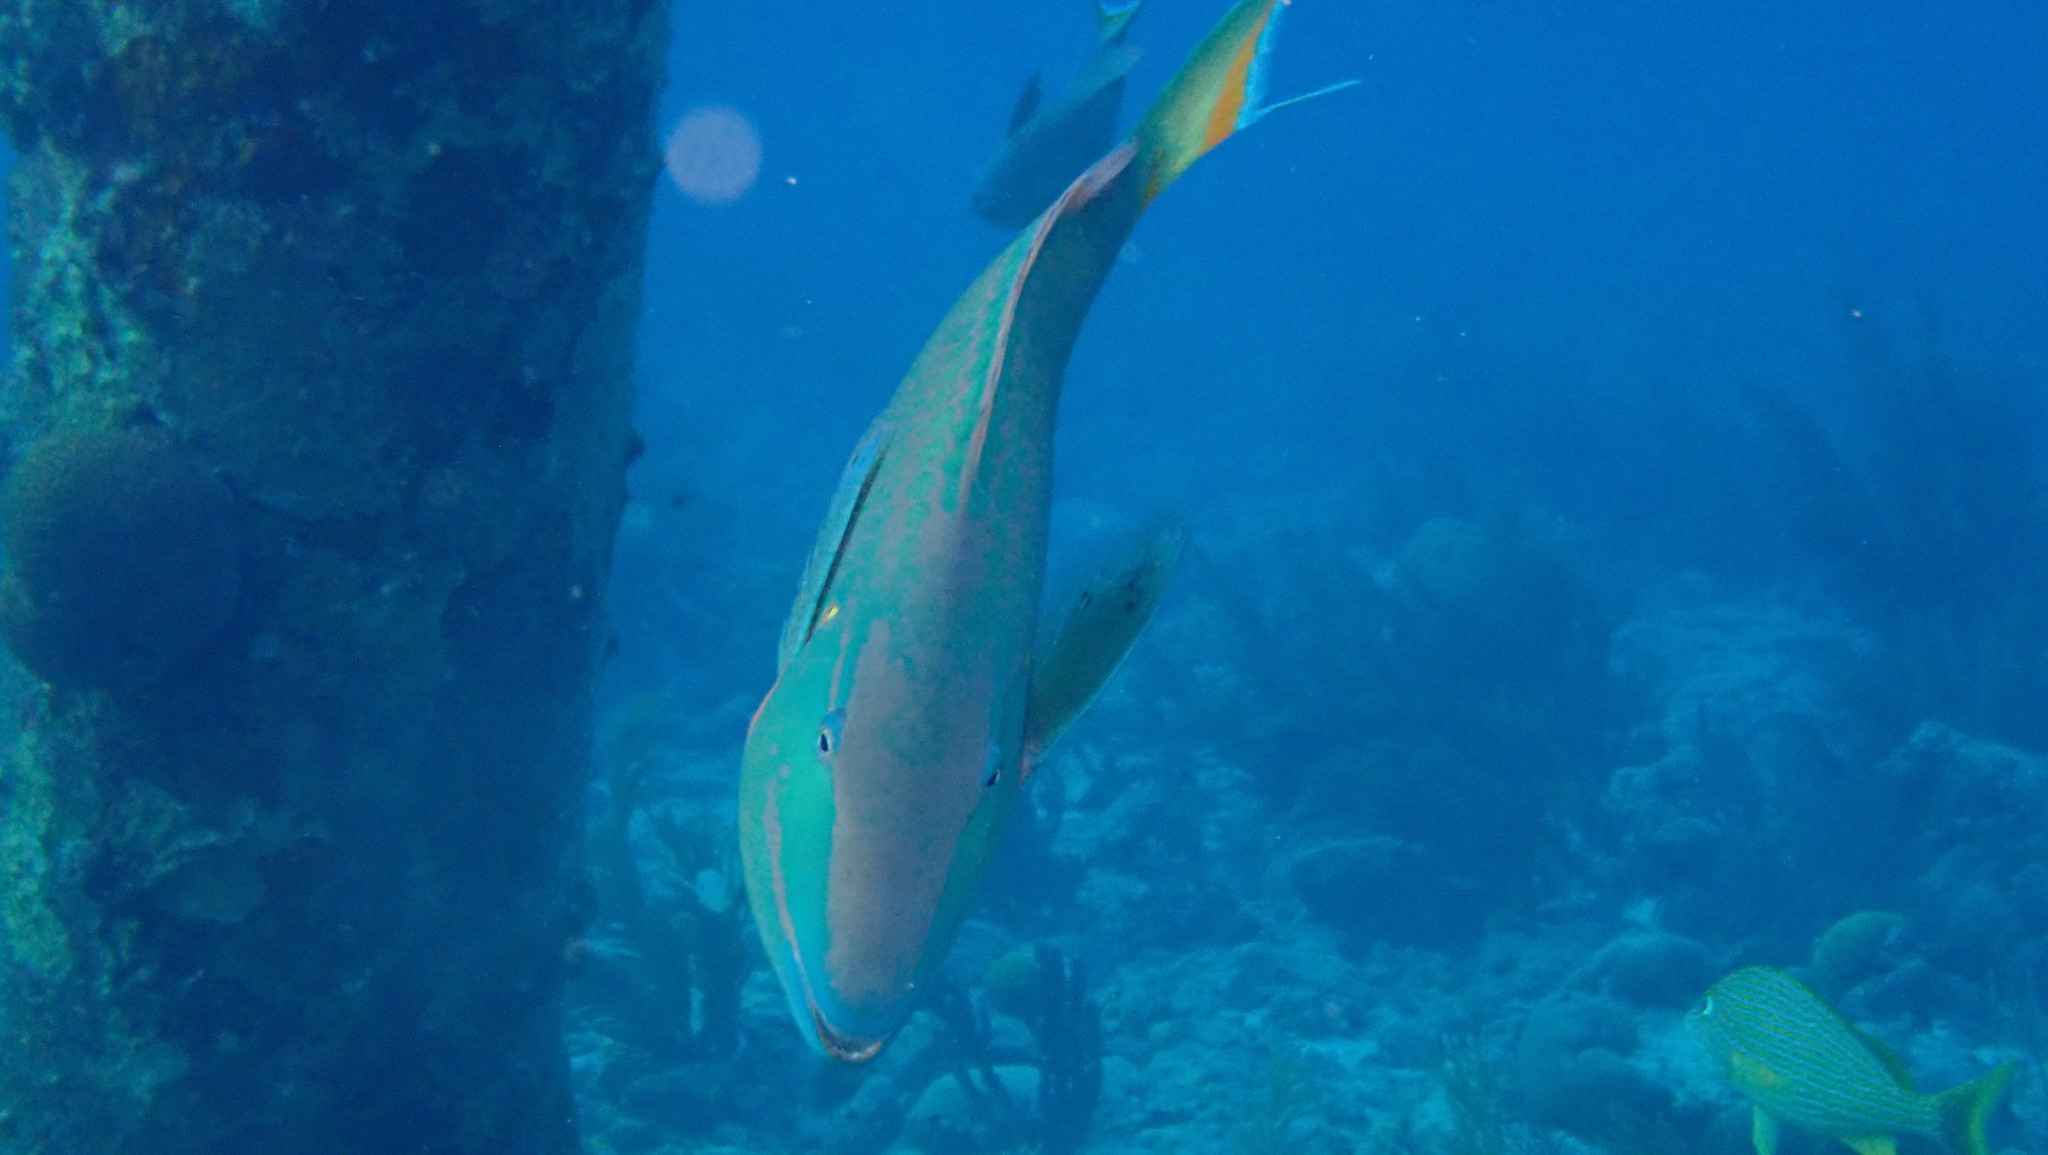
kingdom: Animalia
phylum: Chordata
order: Perciformes
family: Scaridae
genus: Sparisoma
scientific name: Sparisoma viride
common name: Stoplight parrotfish
